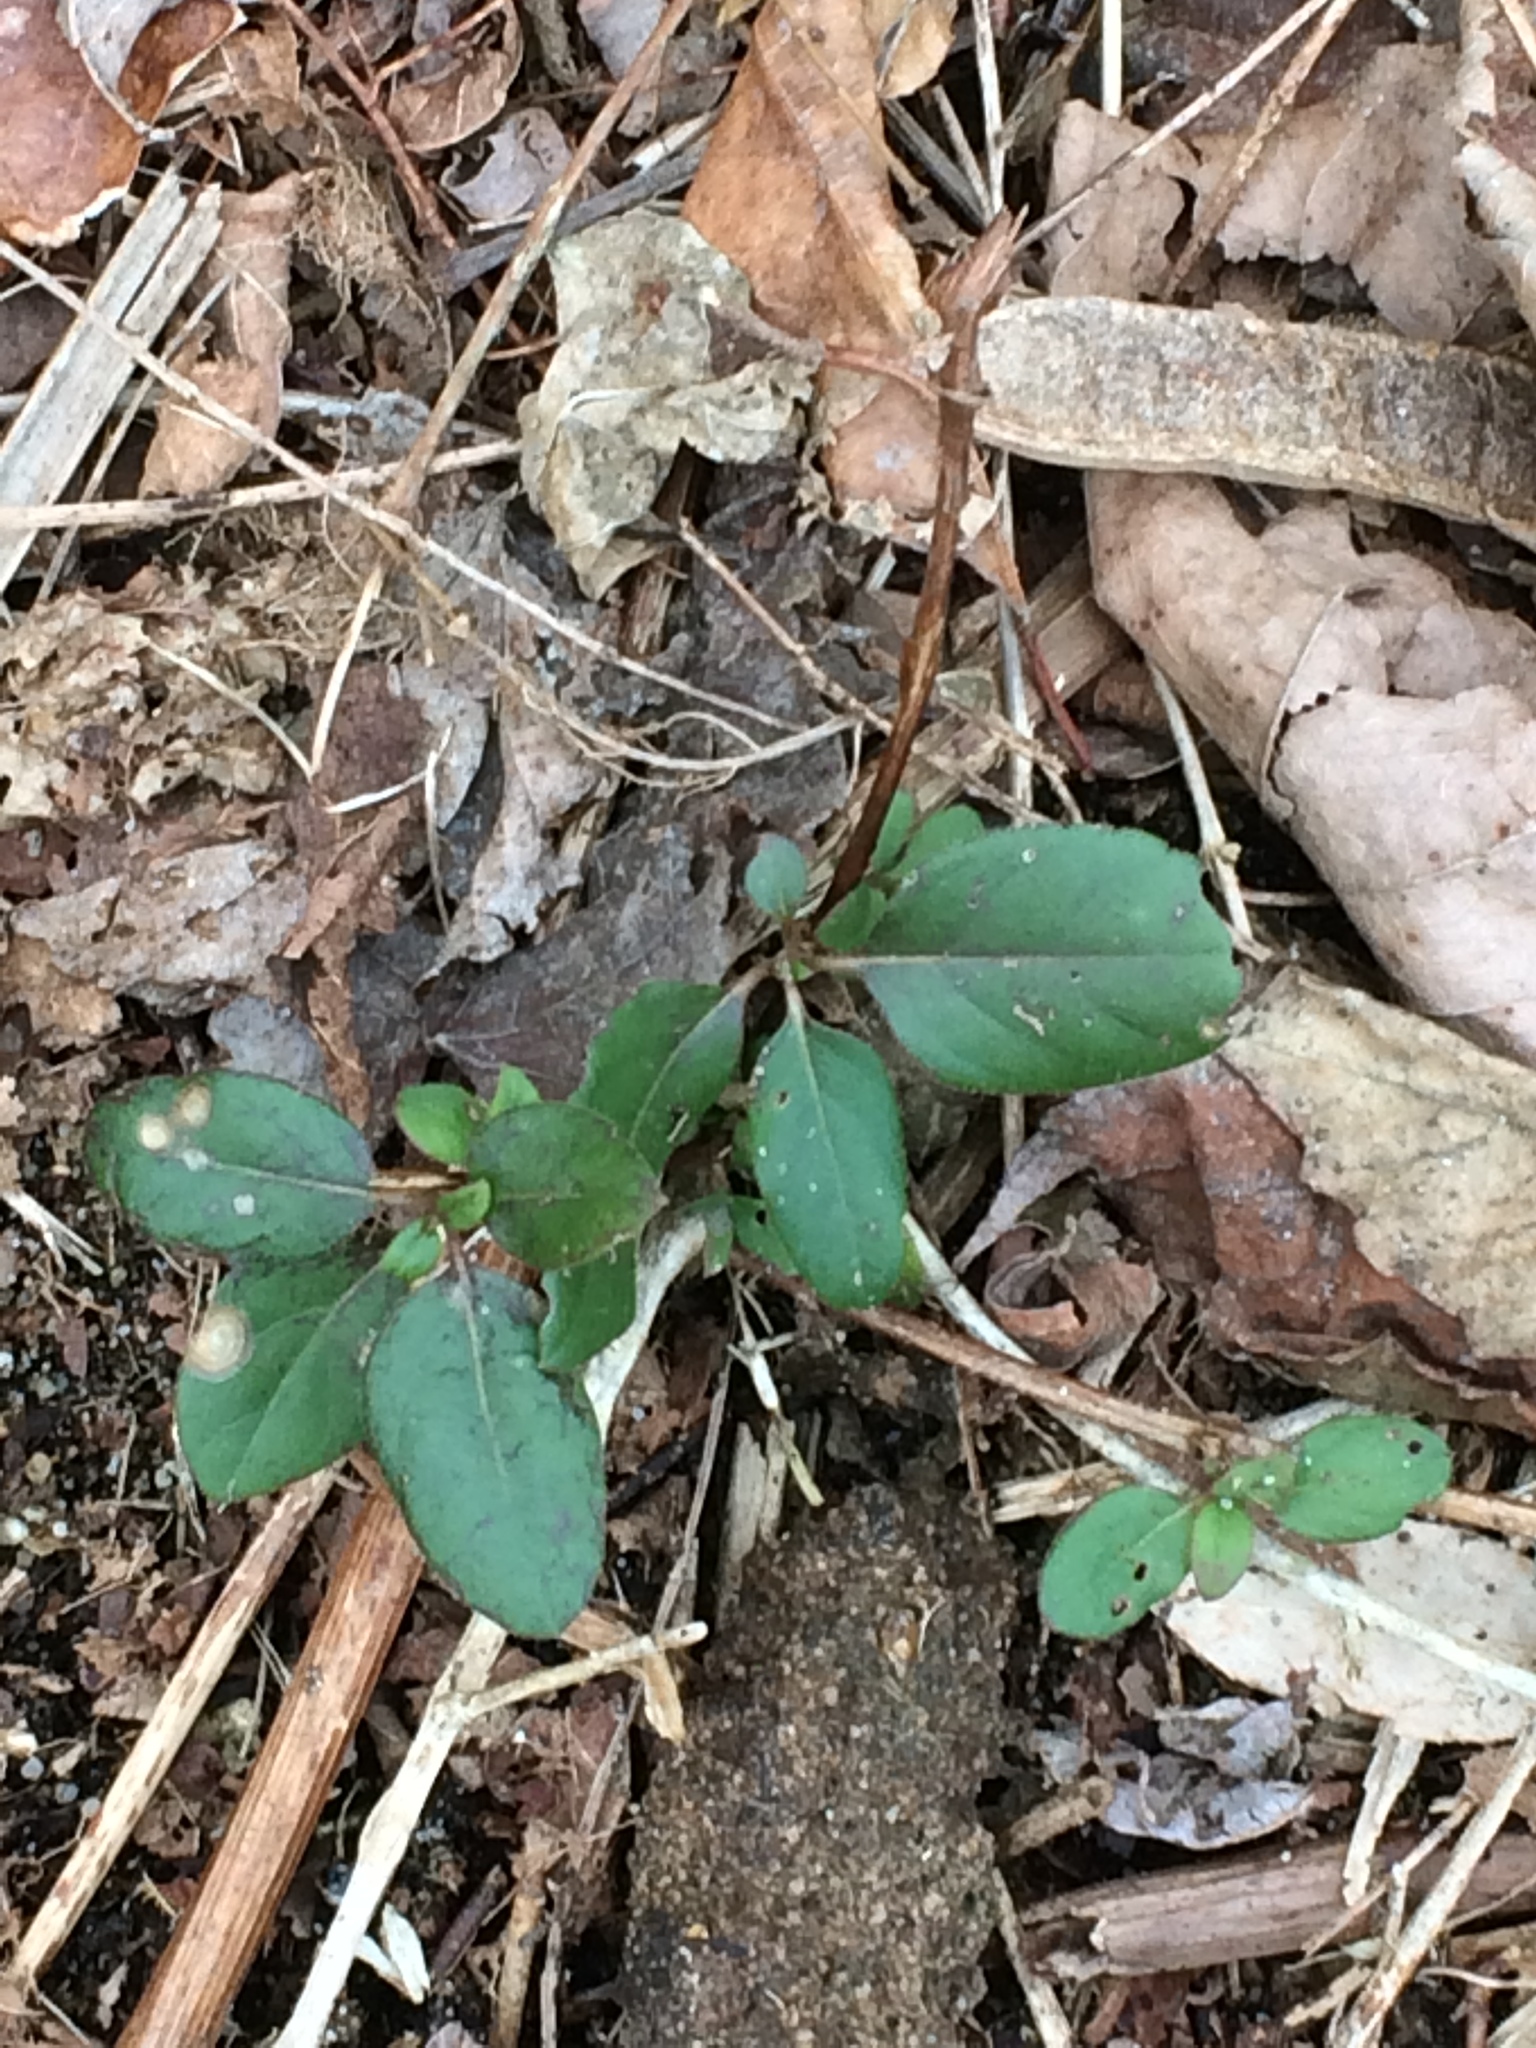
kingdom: Plantae
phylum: Tracheophyta
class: Magnoliopsida
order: Dipsacales
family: Caprifoliaceae
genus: Lonicera
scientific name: Lonicera japonica
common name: Japanese honeysuckle
